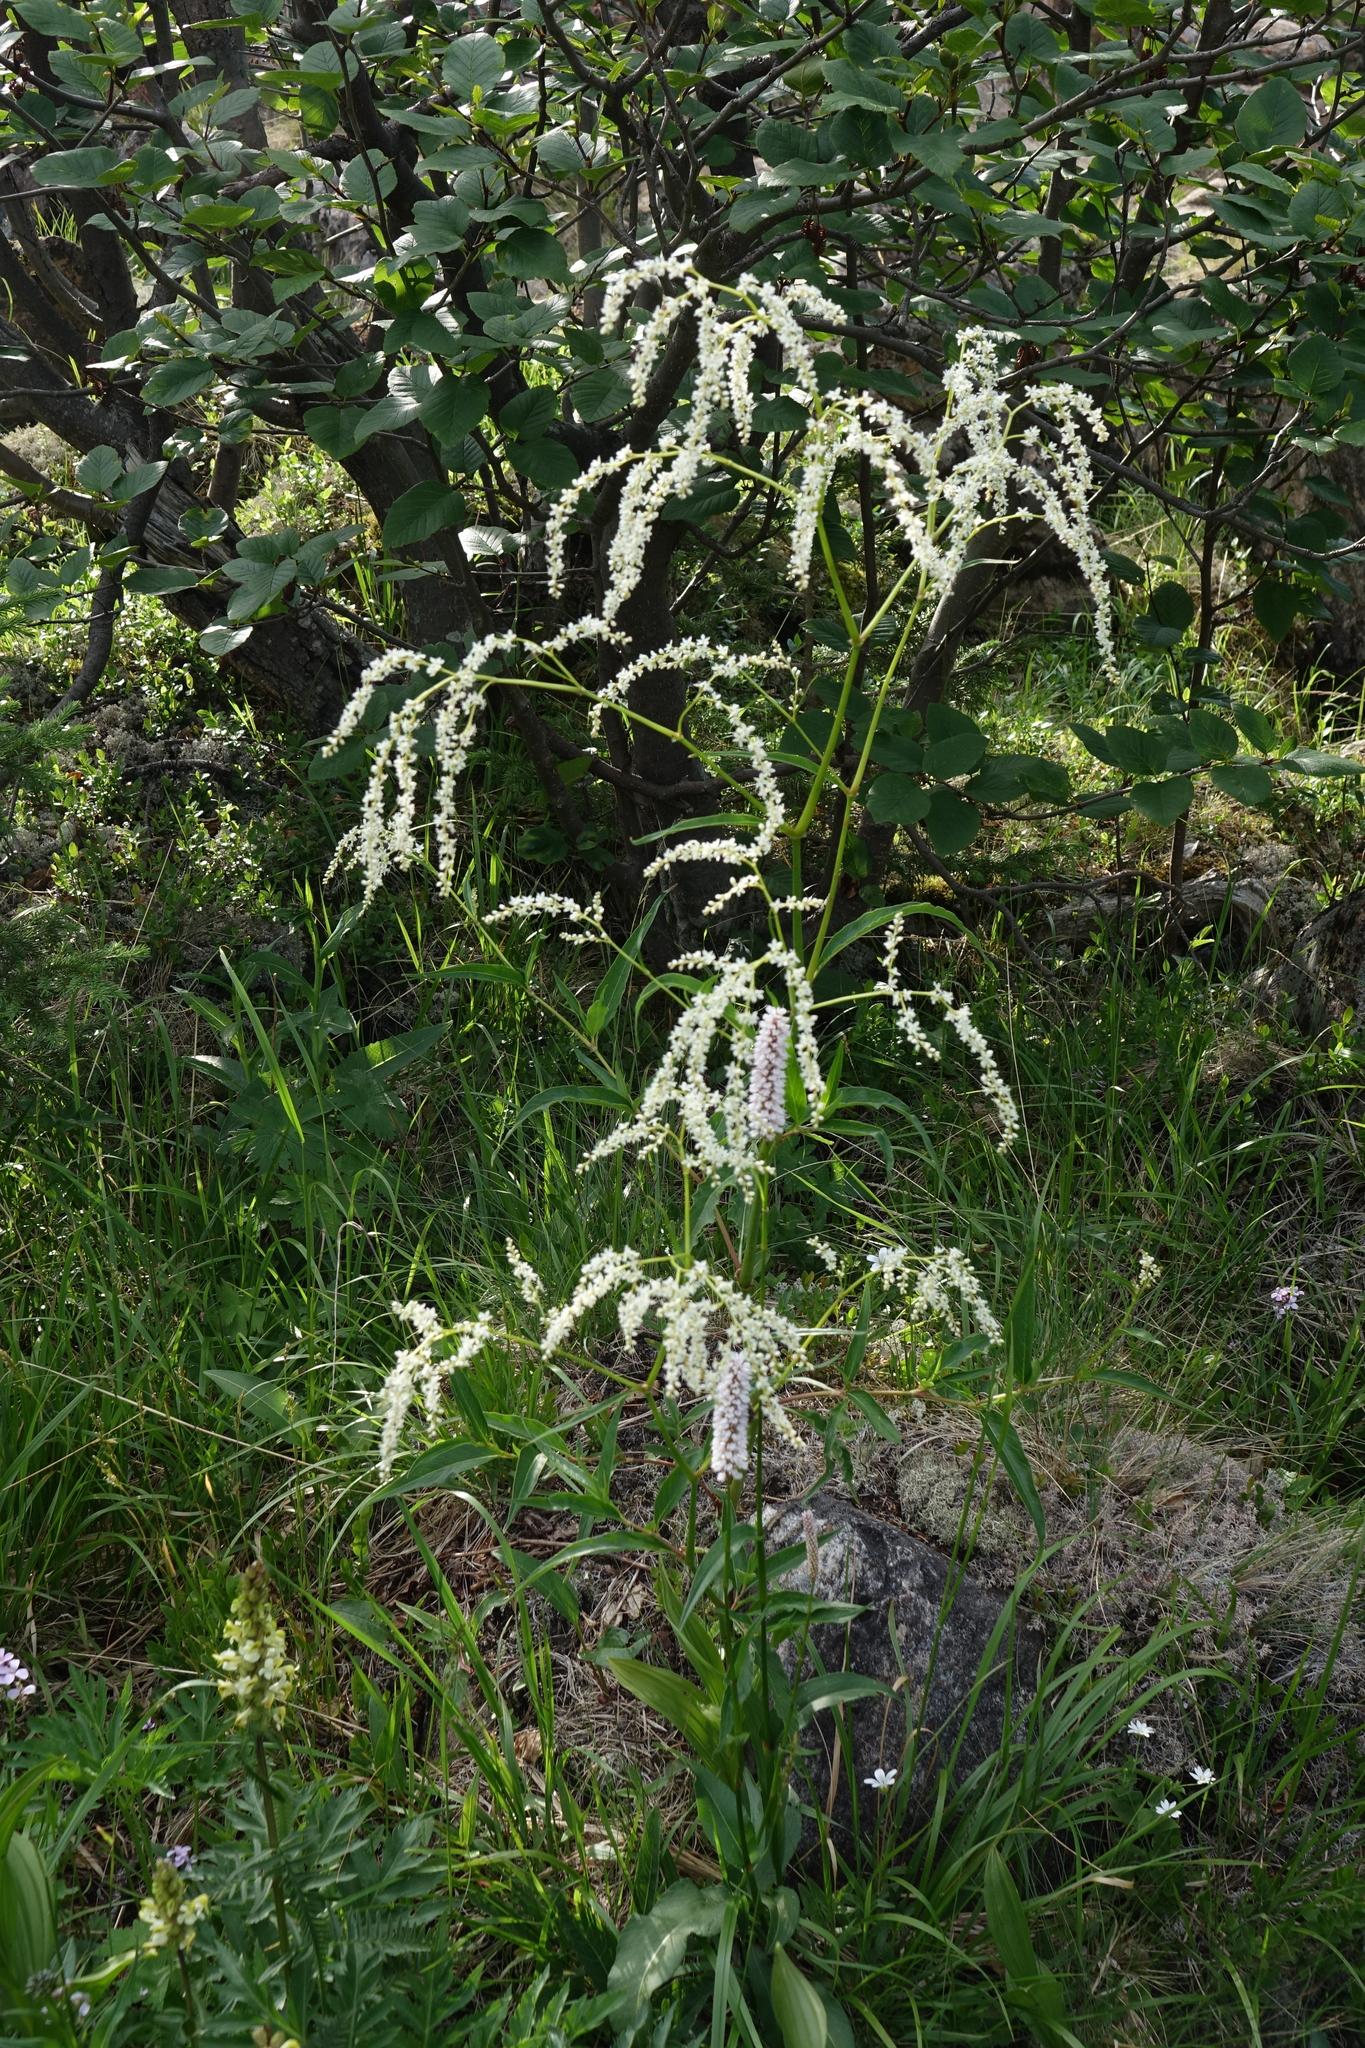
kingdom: Plantae
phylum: Tracheophyta
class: Magnoliopsida
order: Caryophyllales
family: Polygonaceae
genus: Koenigia
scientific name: Koenigia alpina
